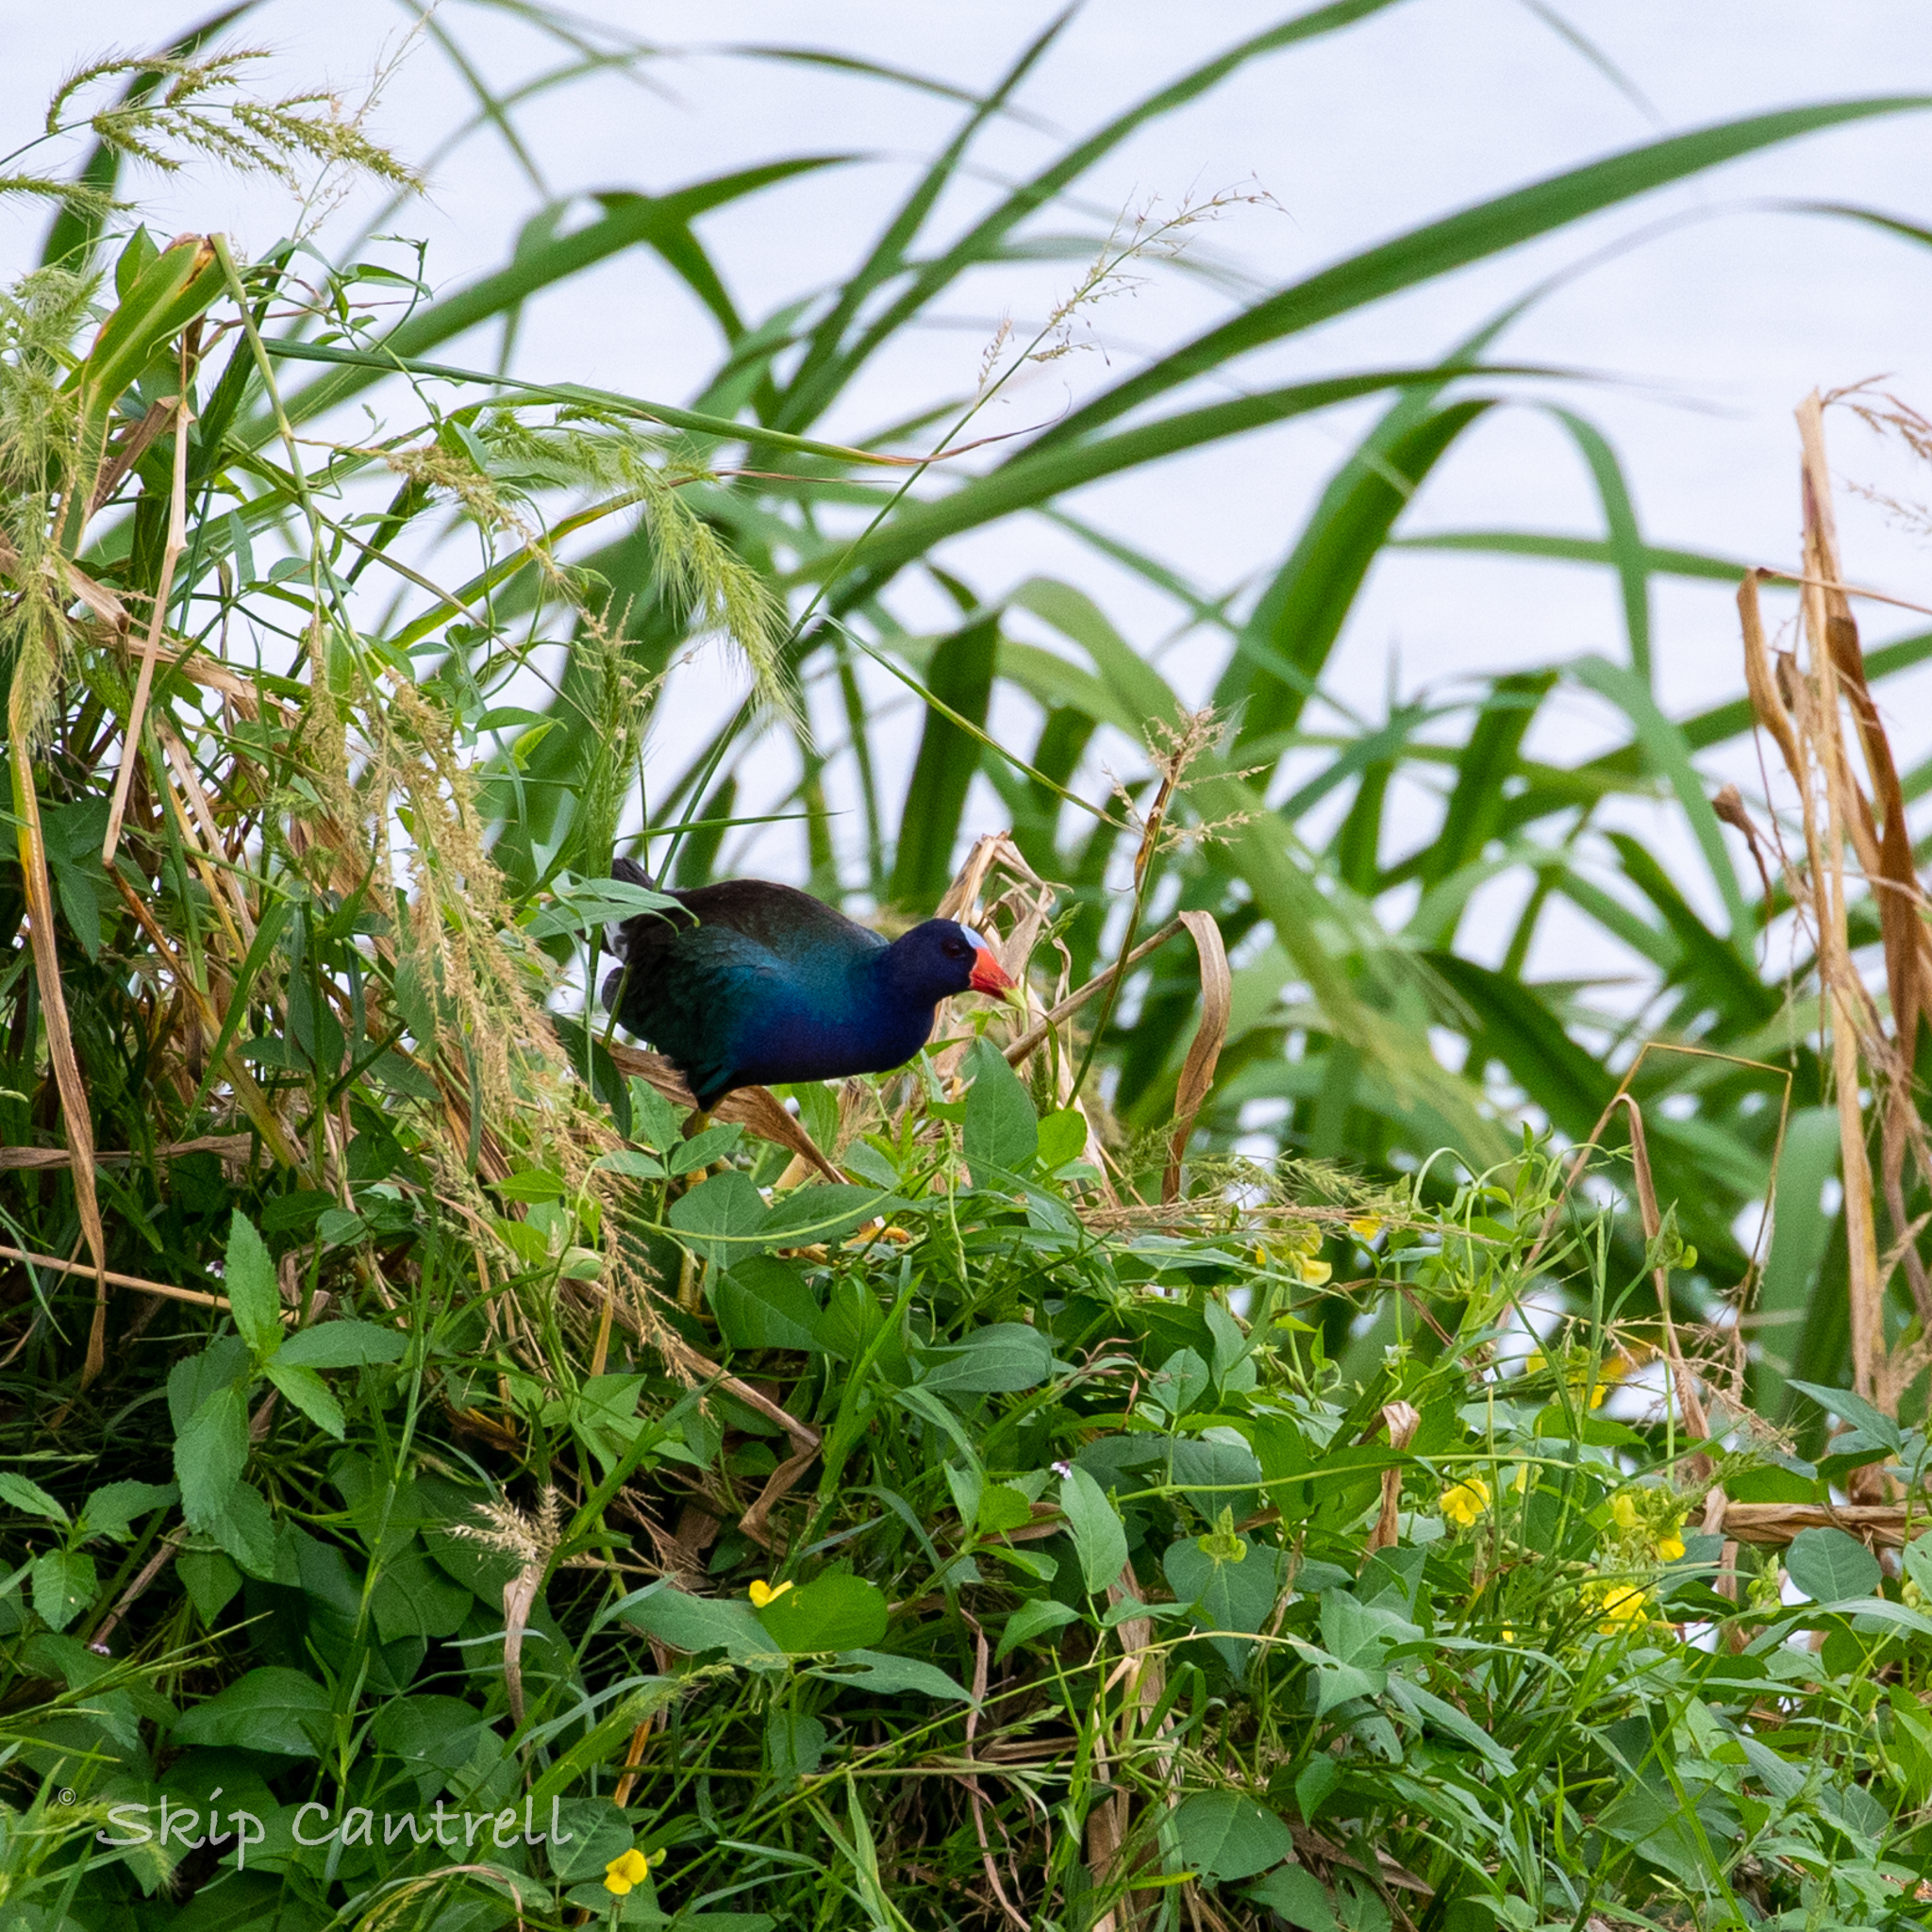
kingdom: Animalia
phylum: Chordata
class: Aves
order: Gruiformes
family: Rallidae
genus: Porphyrio
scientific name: Porphyrio martinica
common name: Purple gallinule
